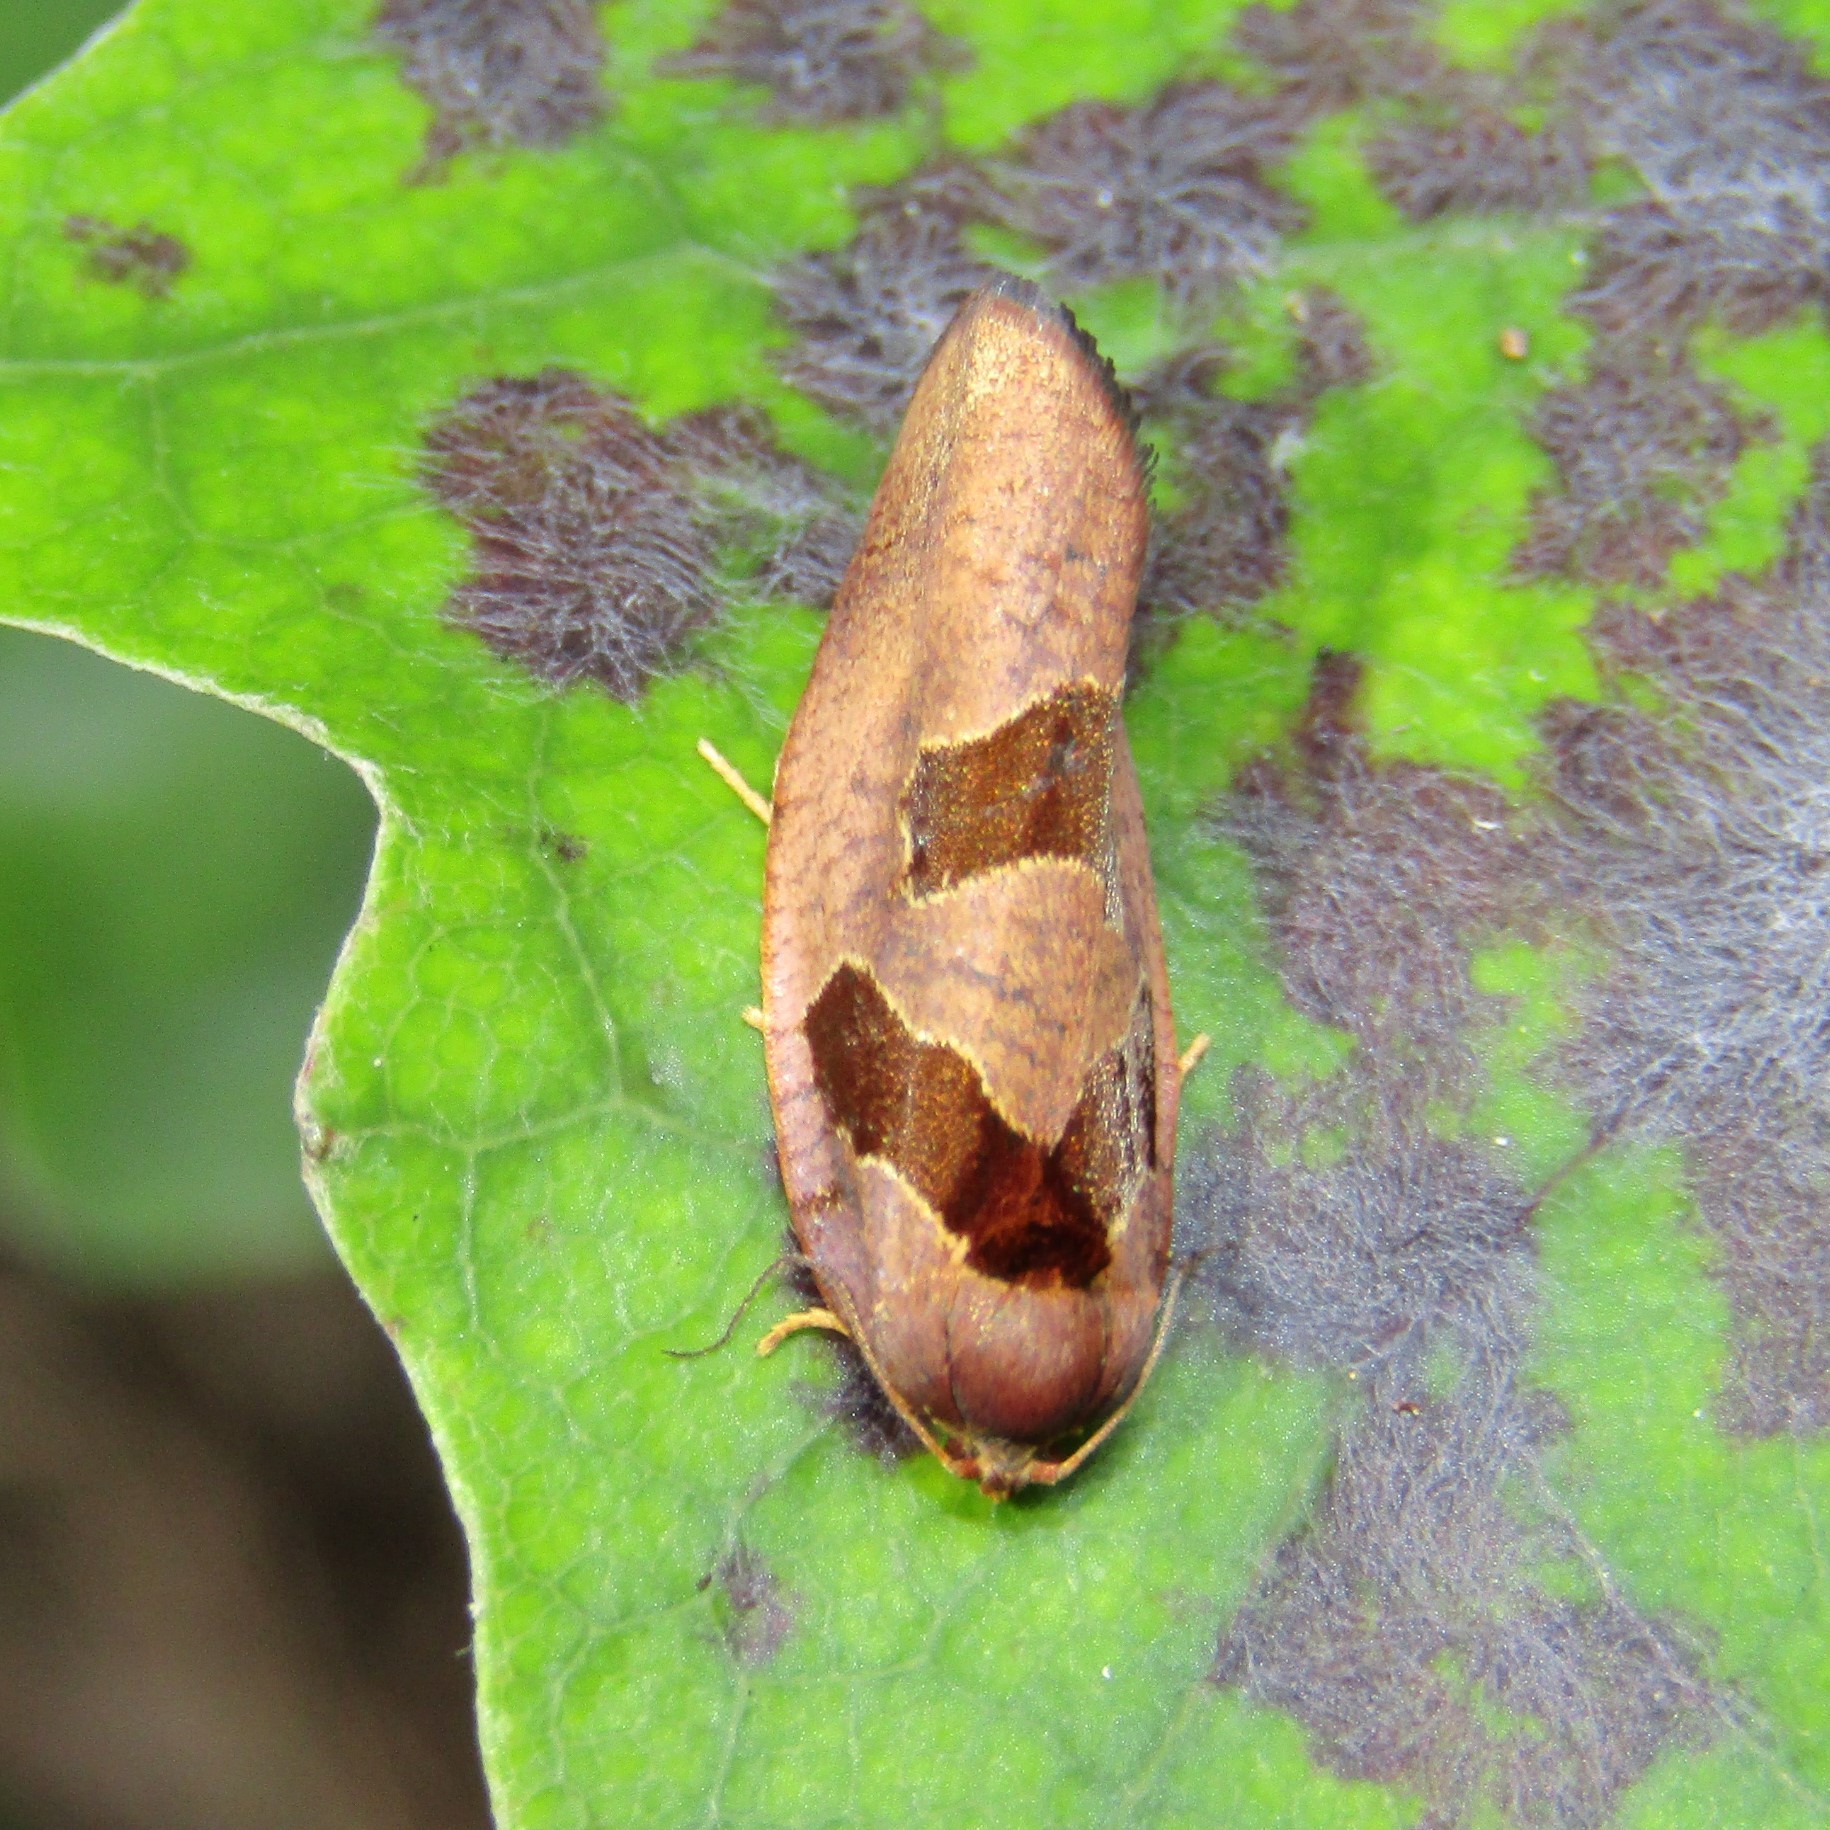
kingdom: Animalia
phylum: Arthropoda
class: Insecta
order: Lepidoptera
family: Tortricidae
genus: Ochetarcha
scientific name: Ochetarcha
